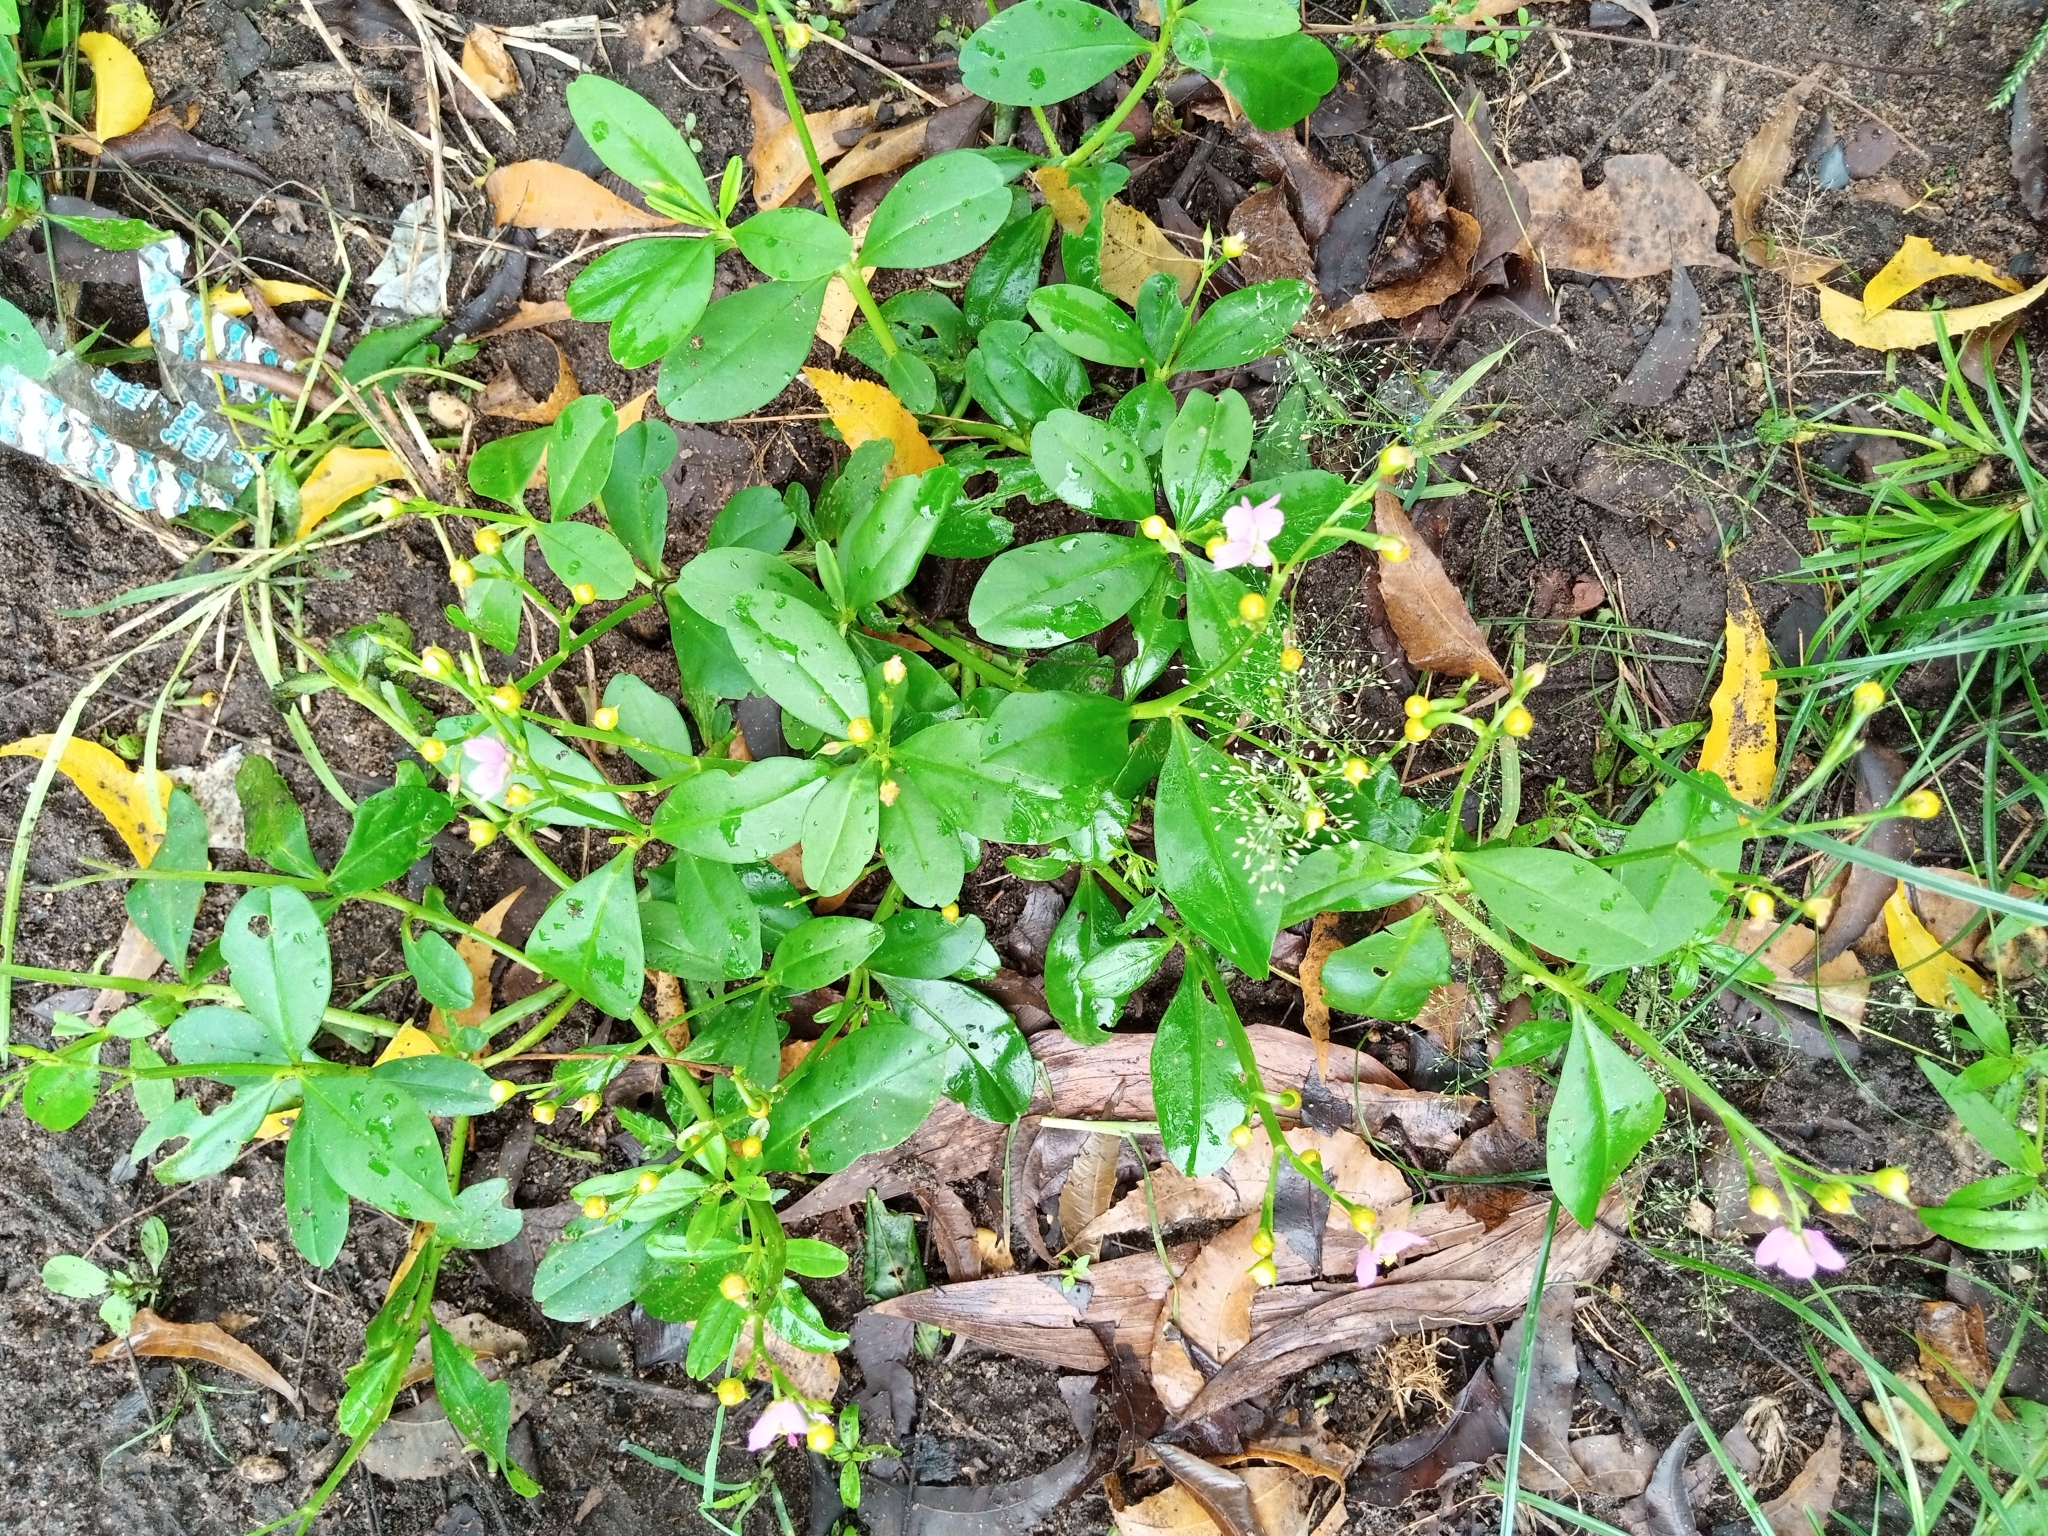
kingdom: Plantae
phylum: Tracheophyta
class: Magnoliopsida
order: Caryophyllales
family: Talinaceae
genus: Talinum
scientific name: Talinum fruticosum
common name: Verdolaga-francesa
